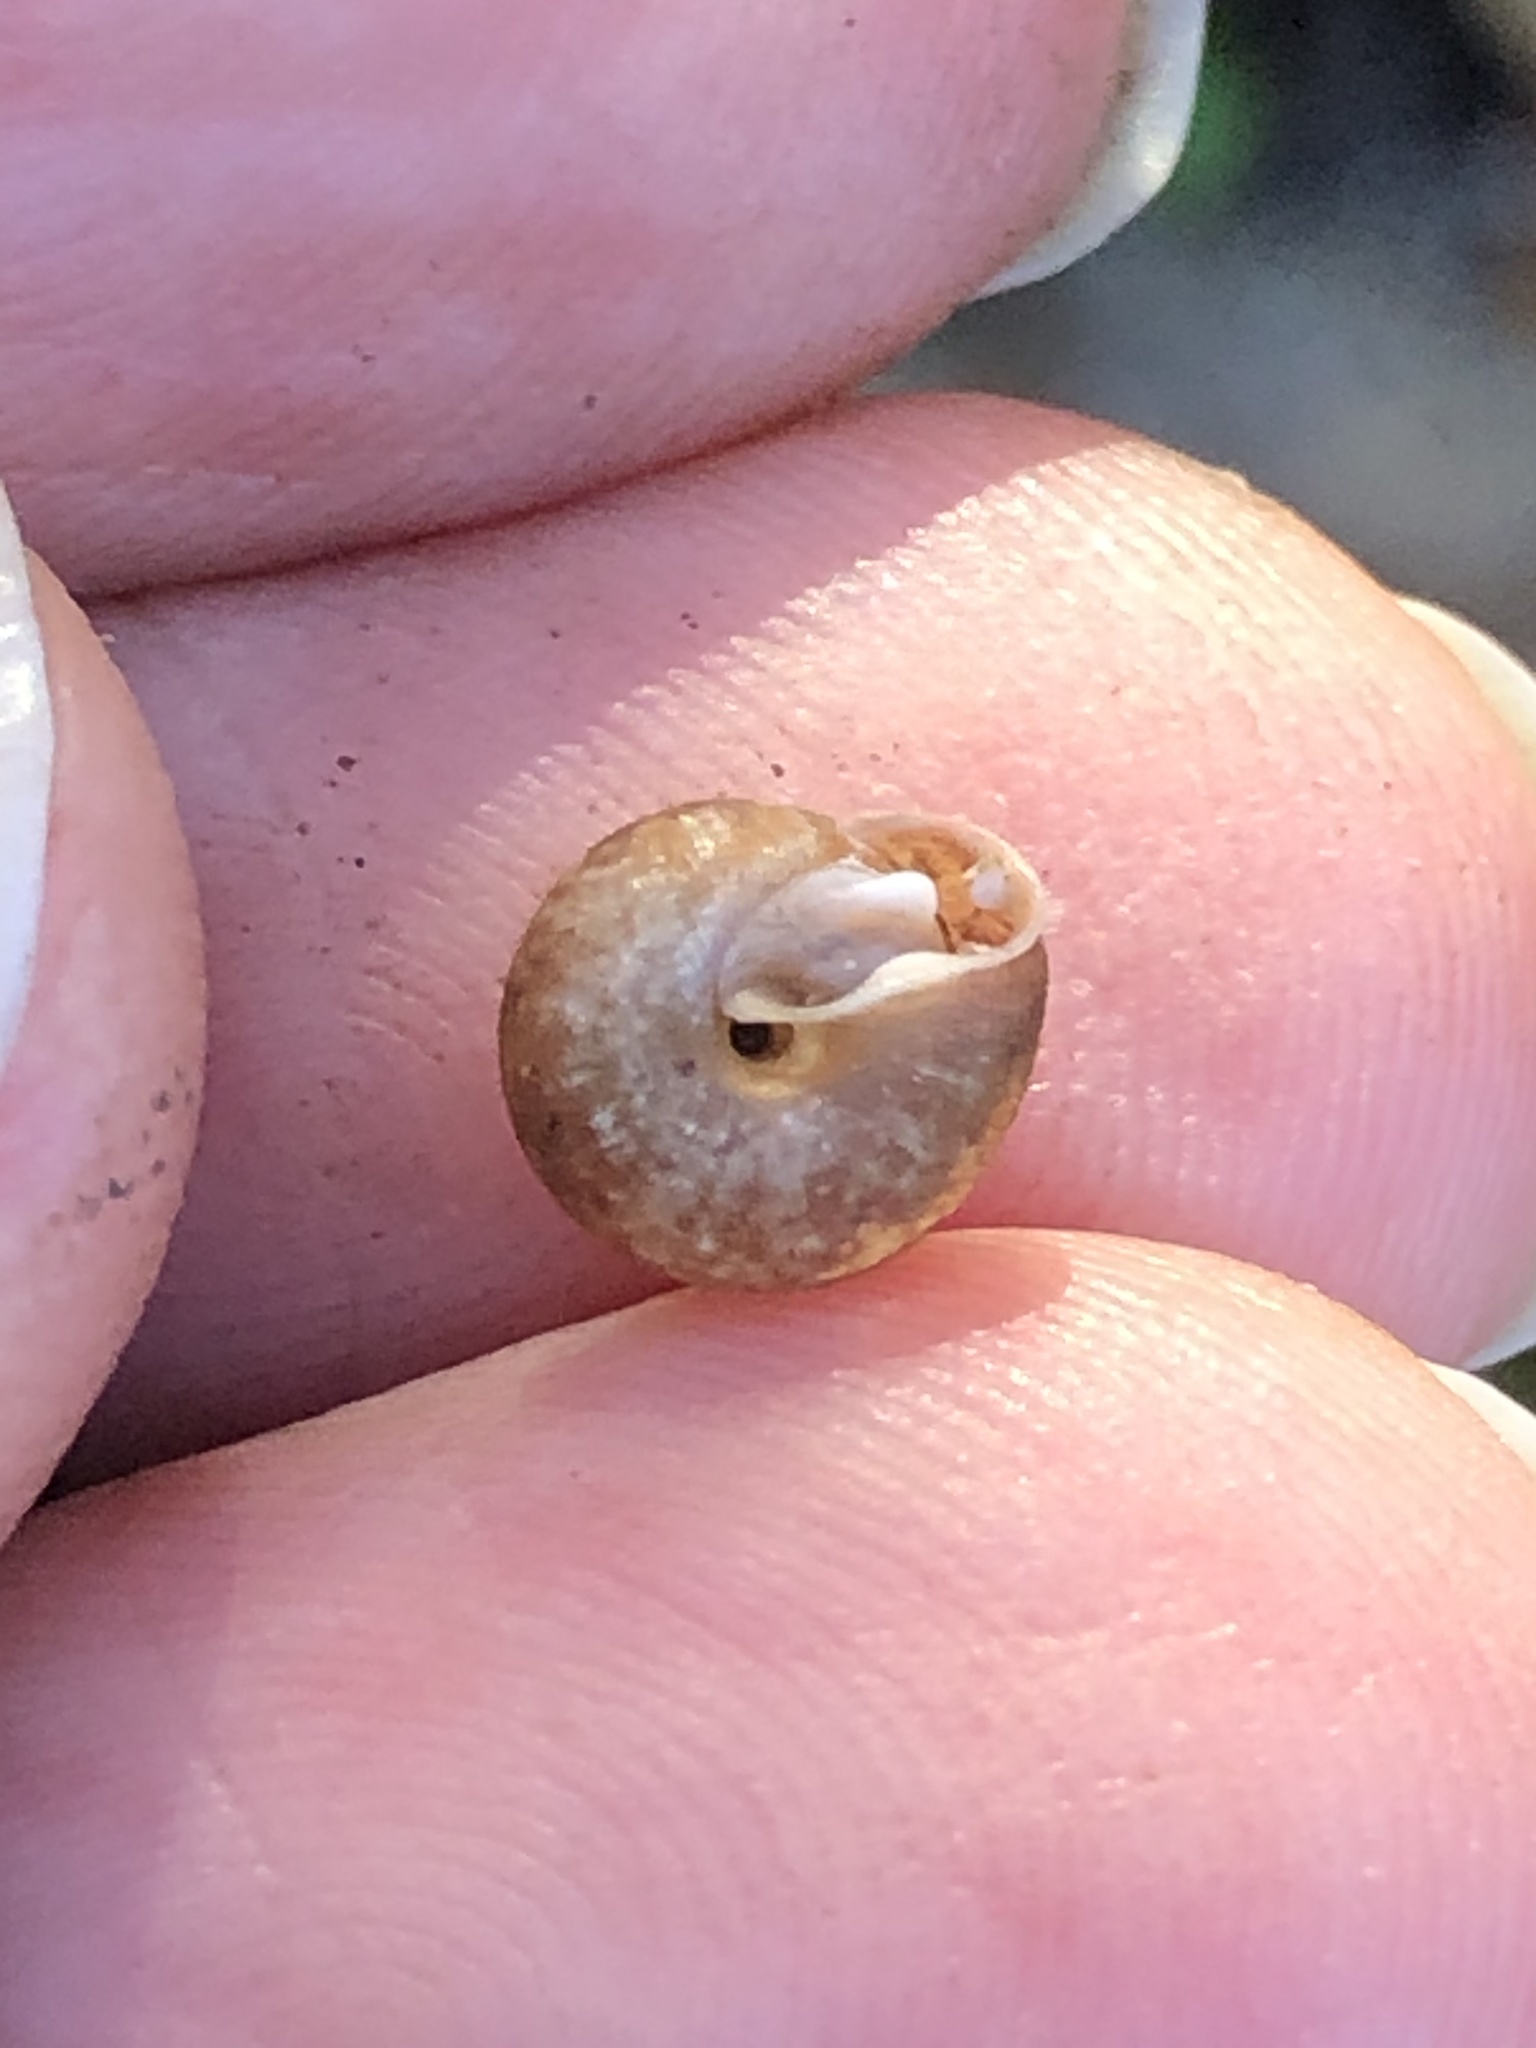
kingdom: Animalia
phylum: Mollusca
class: Gastropoda
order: Stylommatophora
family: Polygyridae
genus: Trilobopsis
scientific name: Trilobopsis loricata
